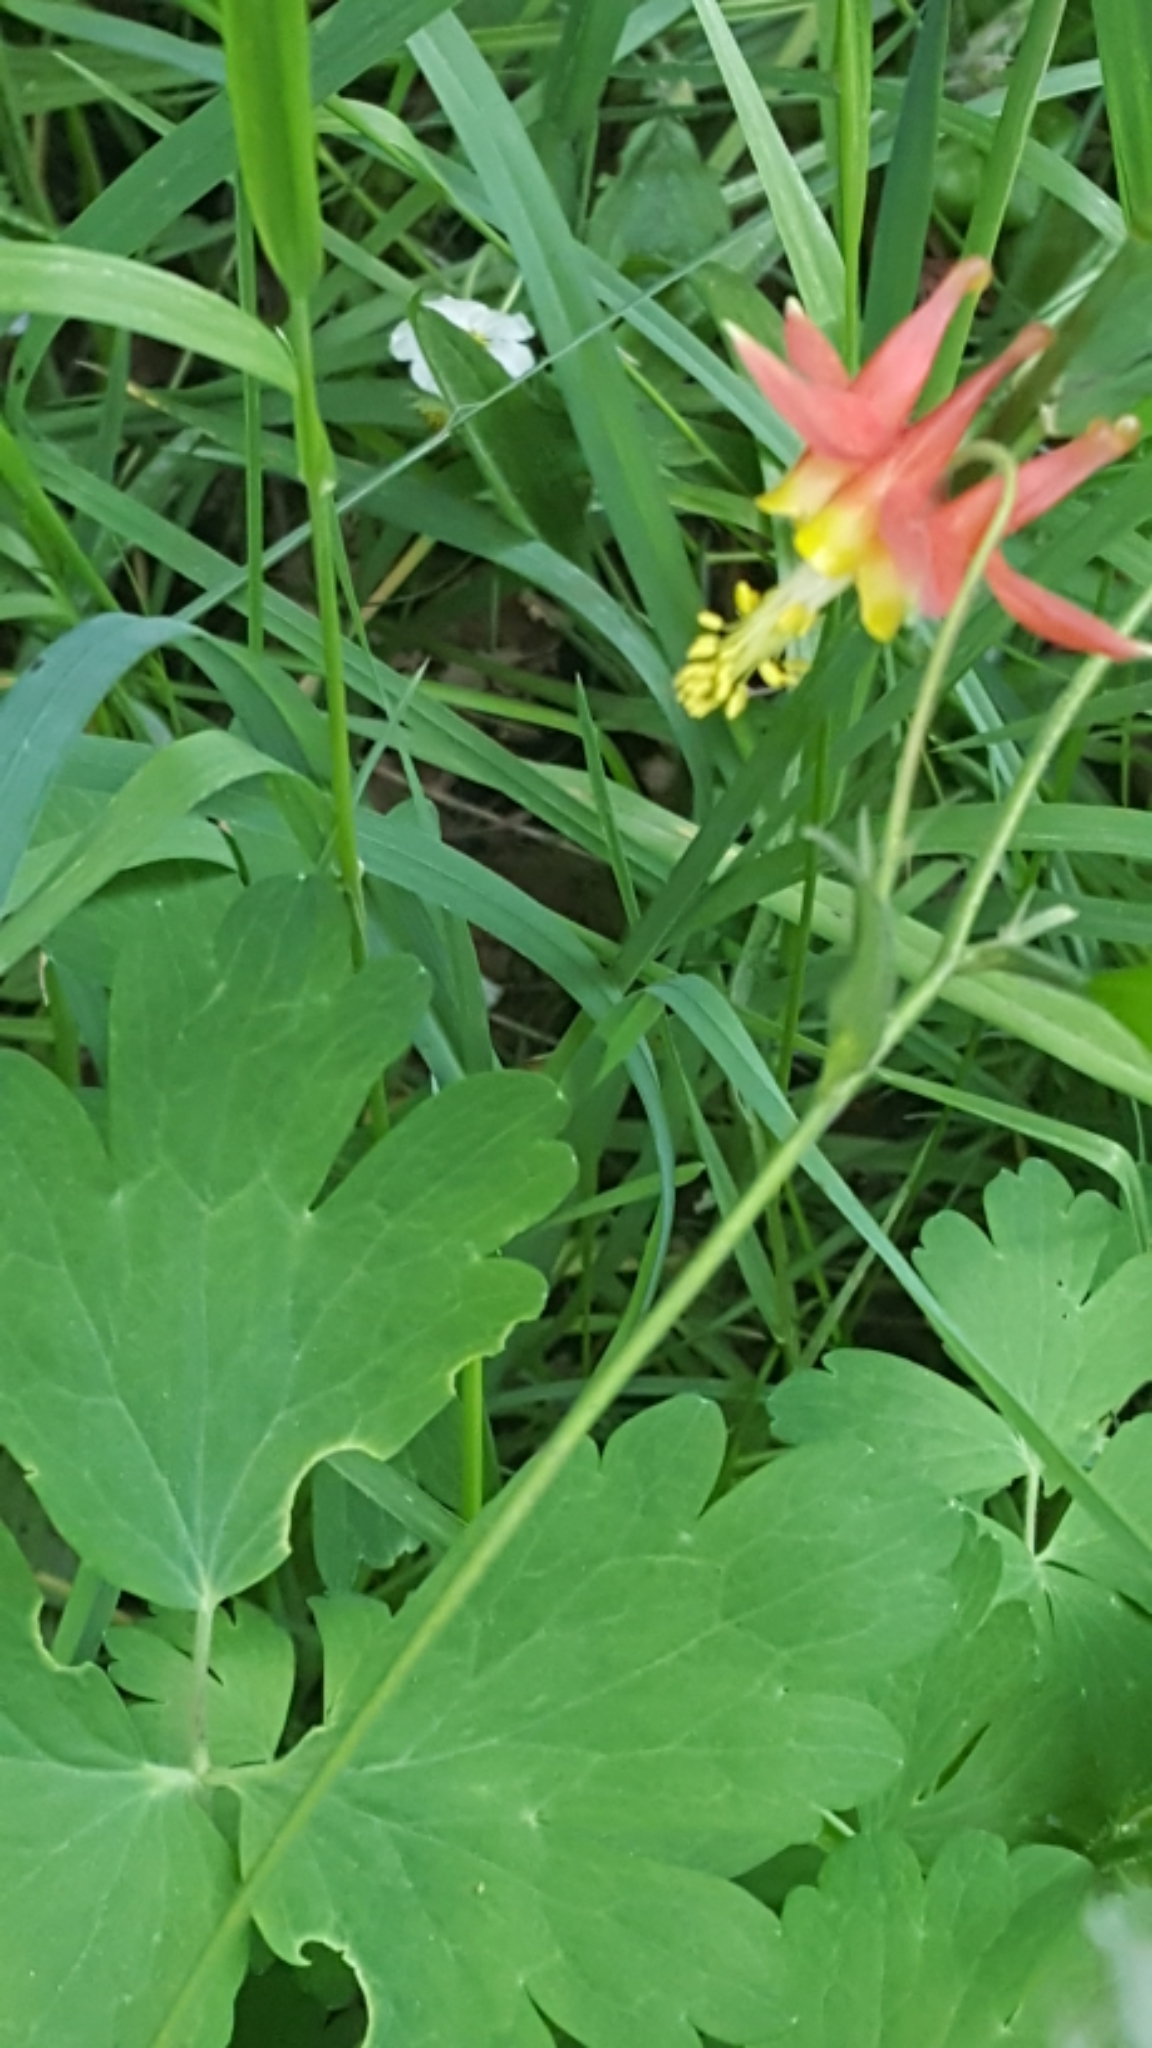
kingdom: Plantae
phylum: Tracheophyta
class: Magnoliopsida
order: Ranunculales
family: Ranunculaceae
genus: Aquilegia
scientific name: Aquilegia formosa
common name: Sitka columbine
